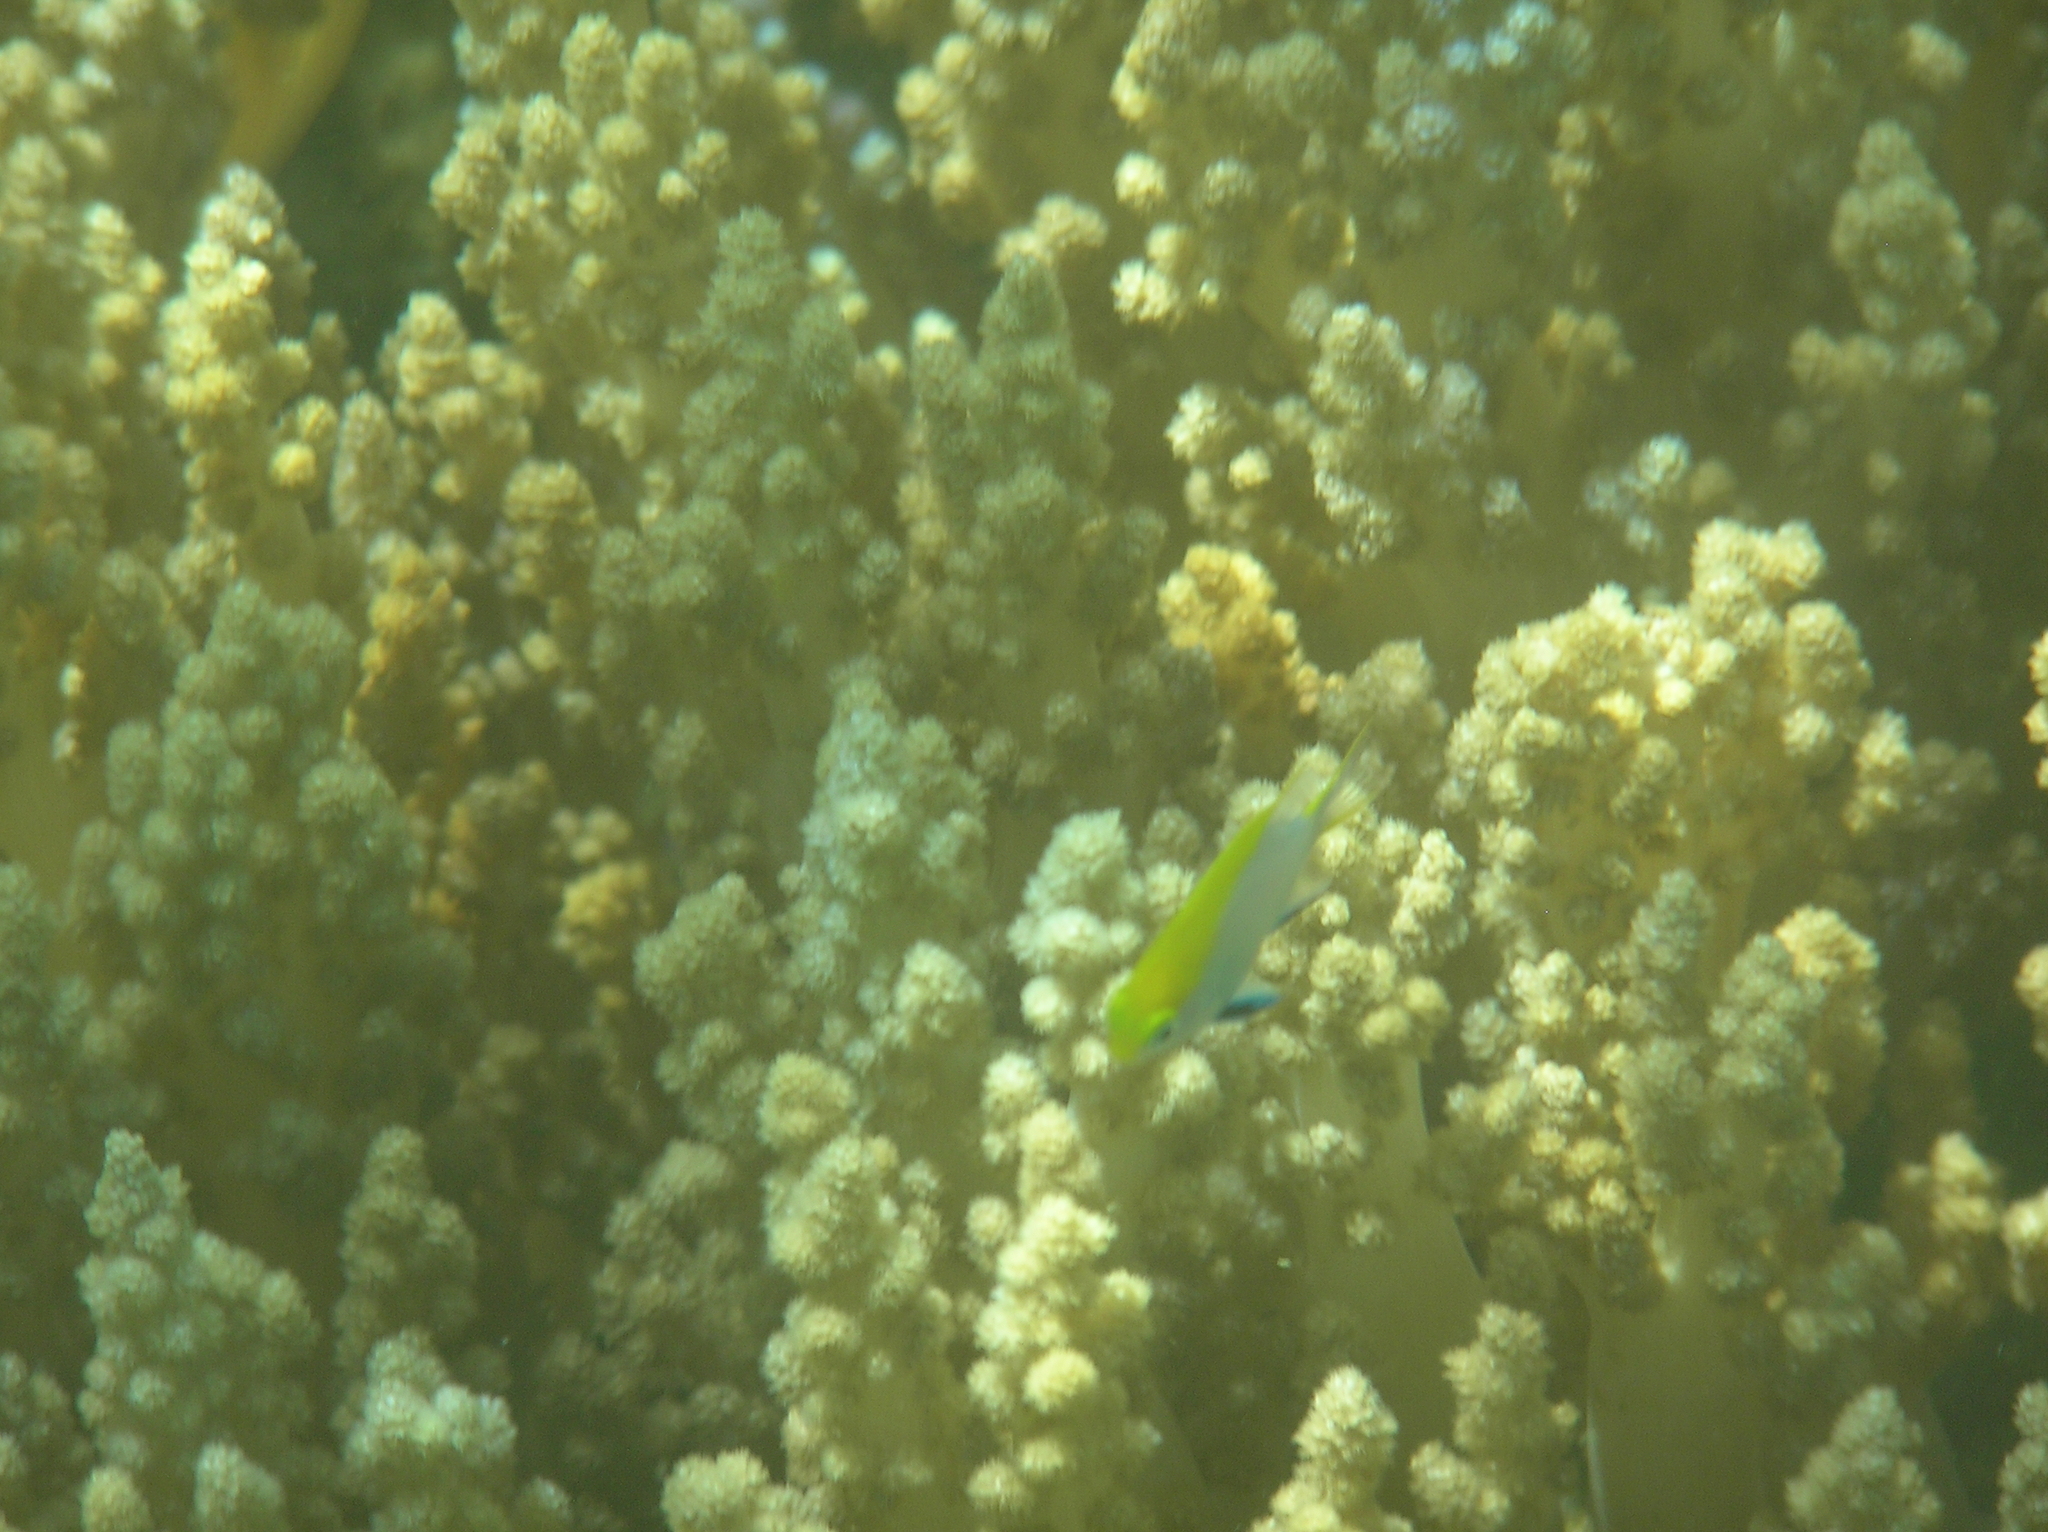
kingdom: Animalia
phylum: Chordata
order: Perciformes
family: Pomacentridae
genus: Neoglyphidodon
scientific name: Neoglyphidodon melas
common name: Black damsel
